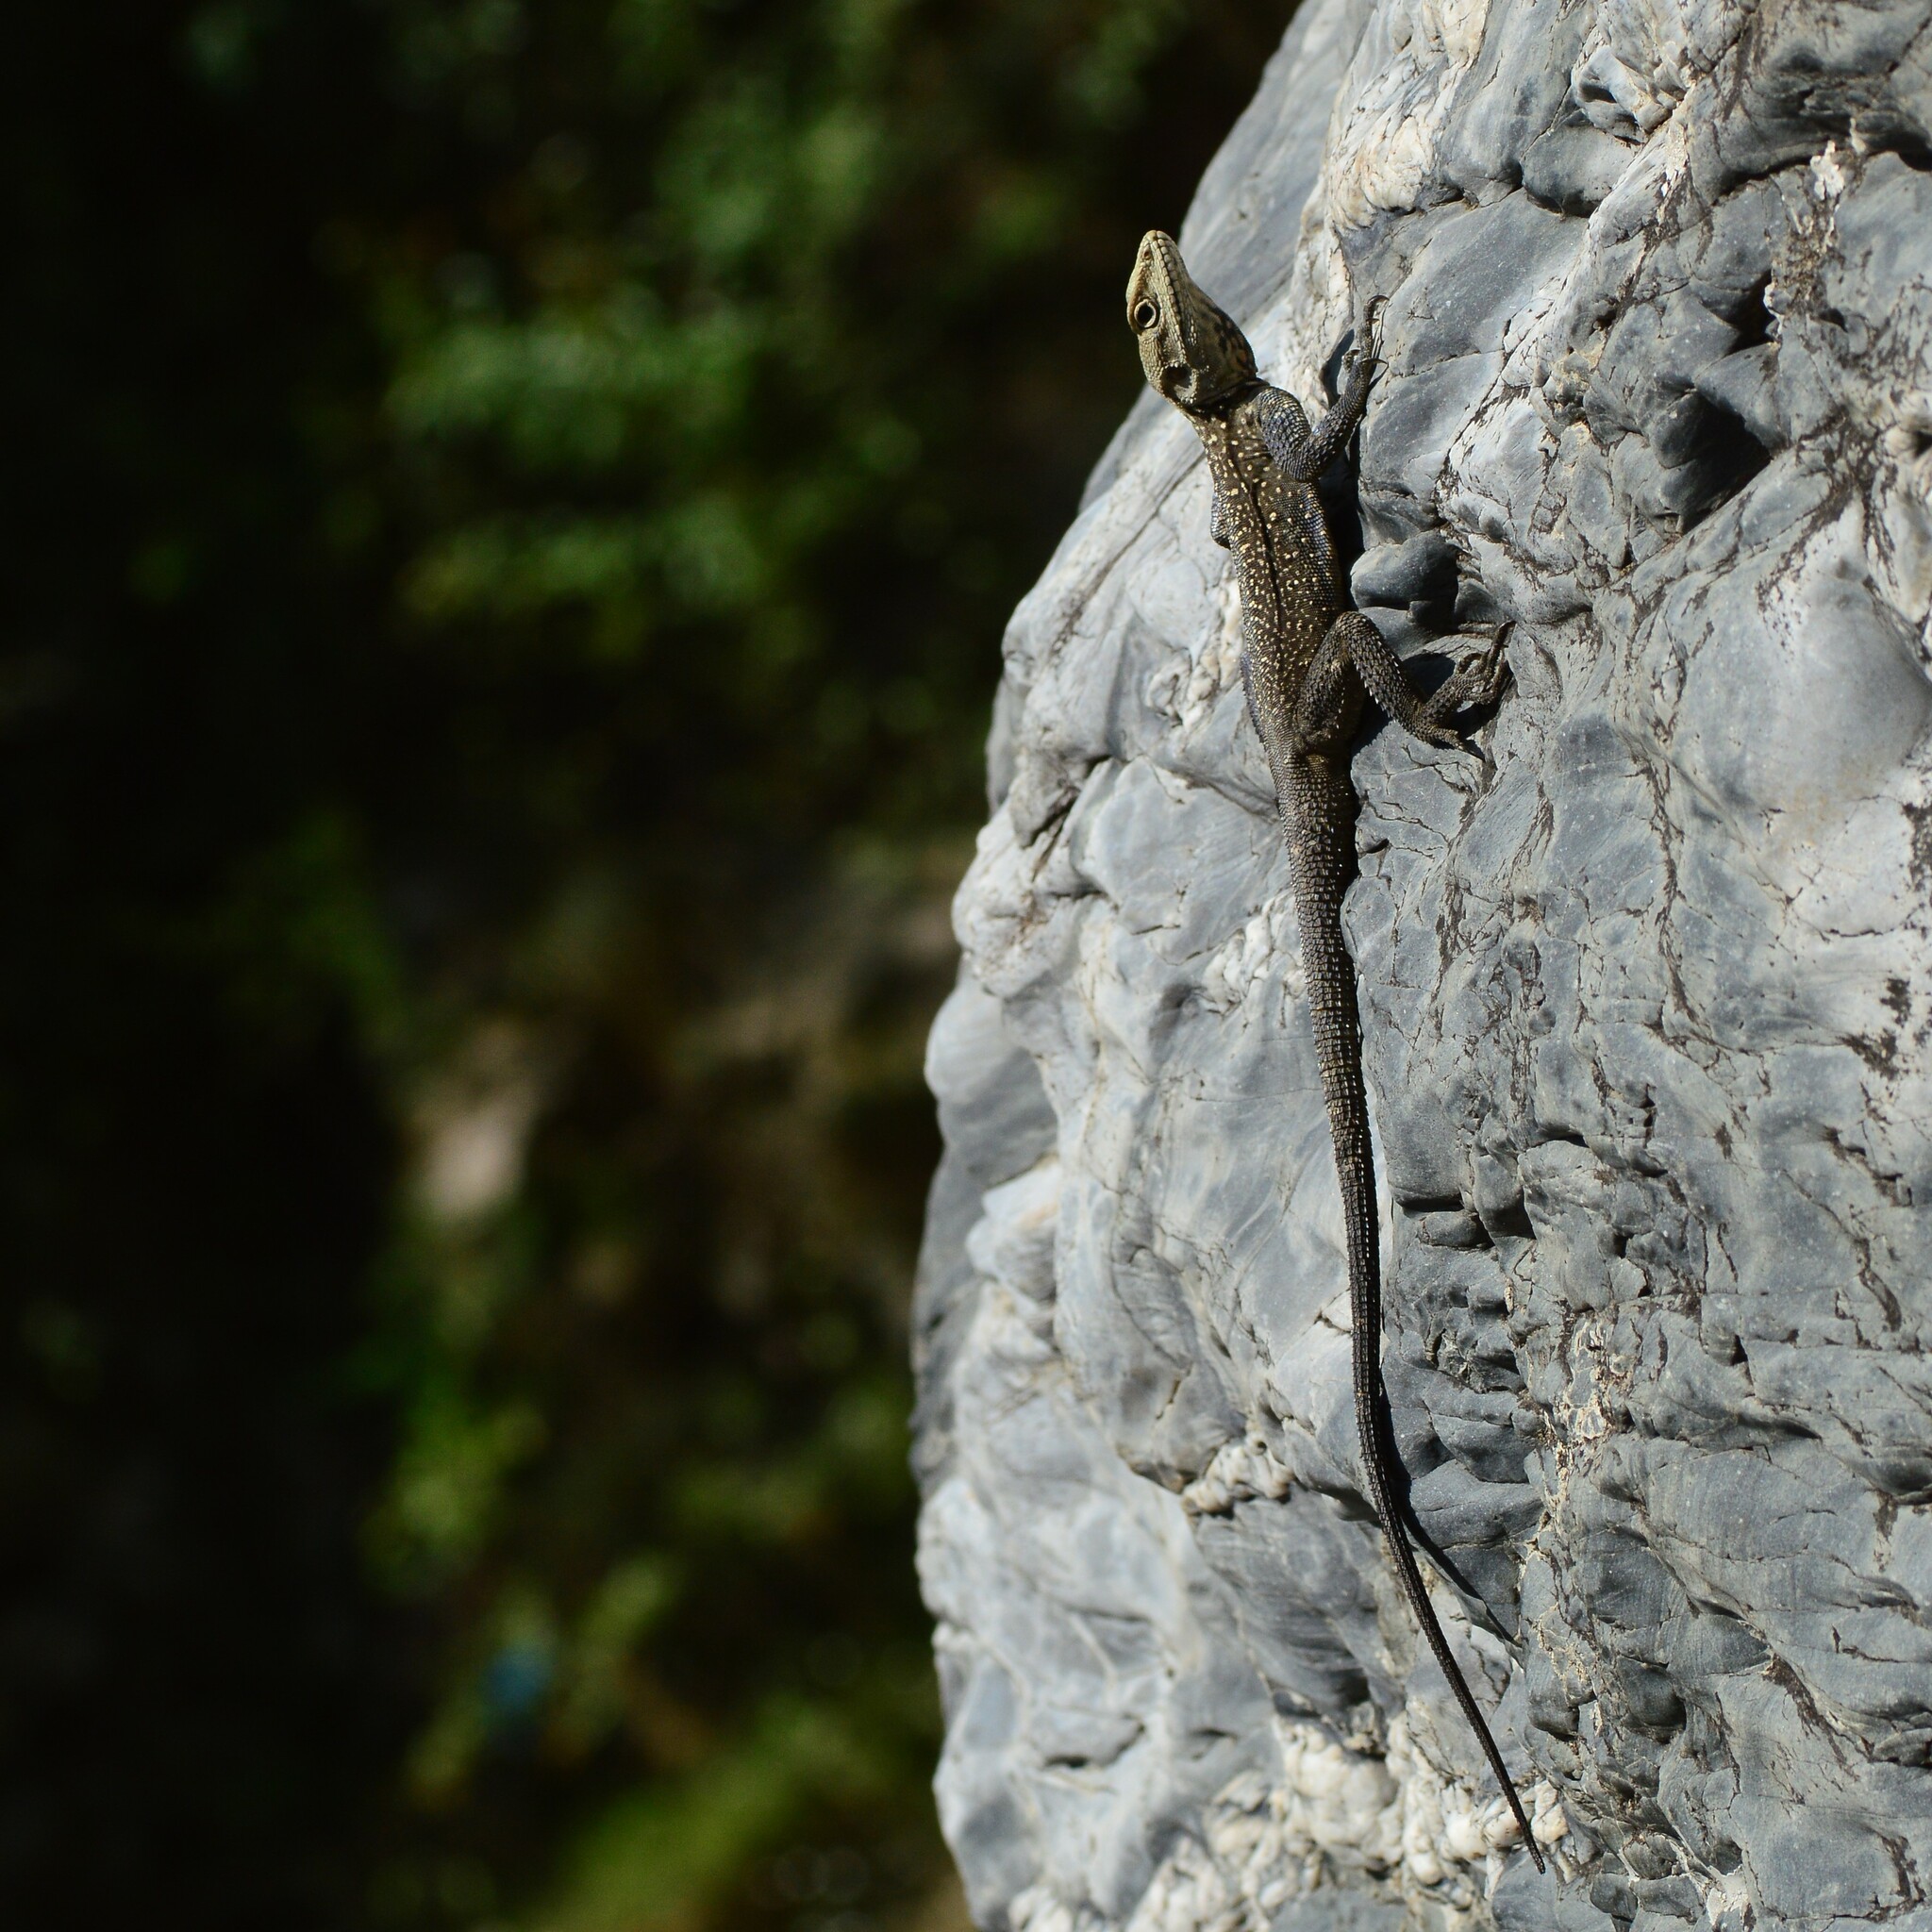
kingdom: Animalia
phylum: Chordata
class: Squamata
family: Agamidae
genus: Laudakia
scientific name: Laudakia tuberculata
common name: Kashmir rock agama
